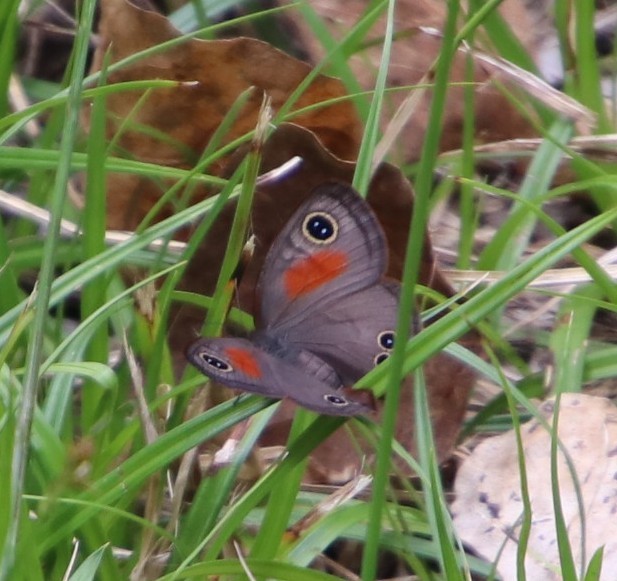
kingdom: Animalia
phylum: Arthropoda
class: Insecta
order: Lepidoptera
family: Nymphalidae
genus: Cassionympha
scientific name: Cassionympha cassius
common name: Rainforest brown
